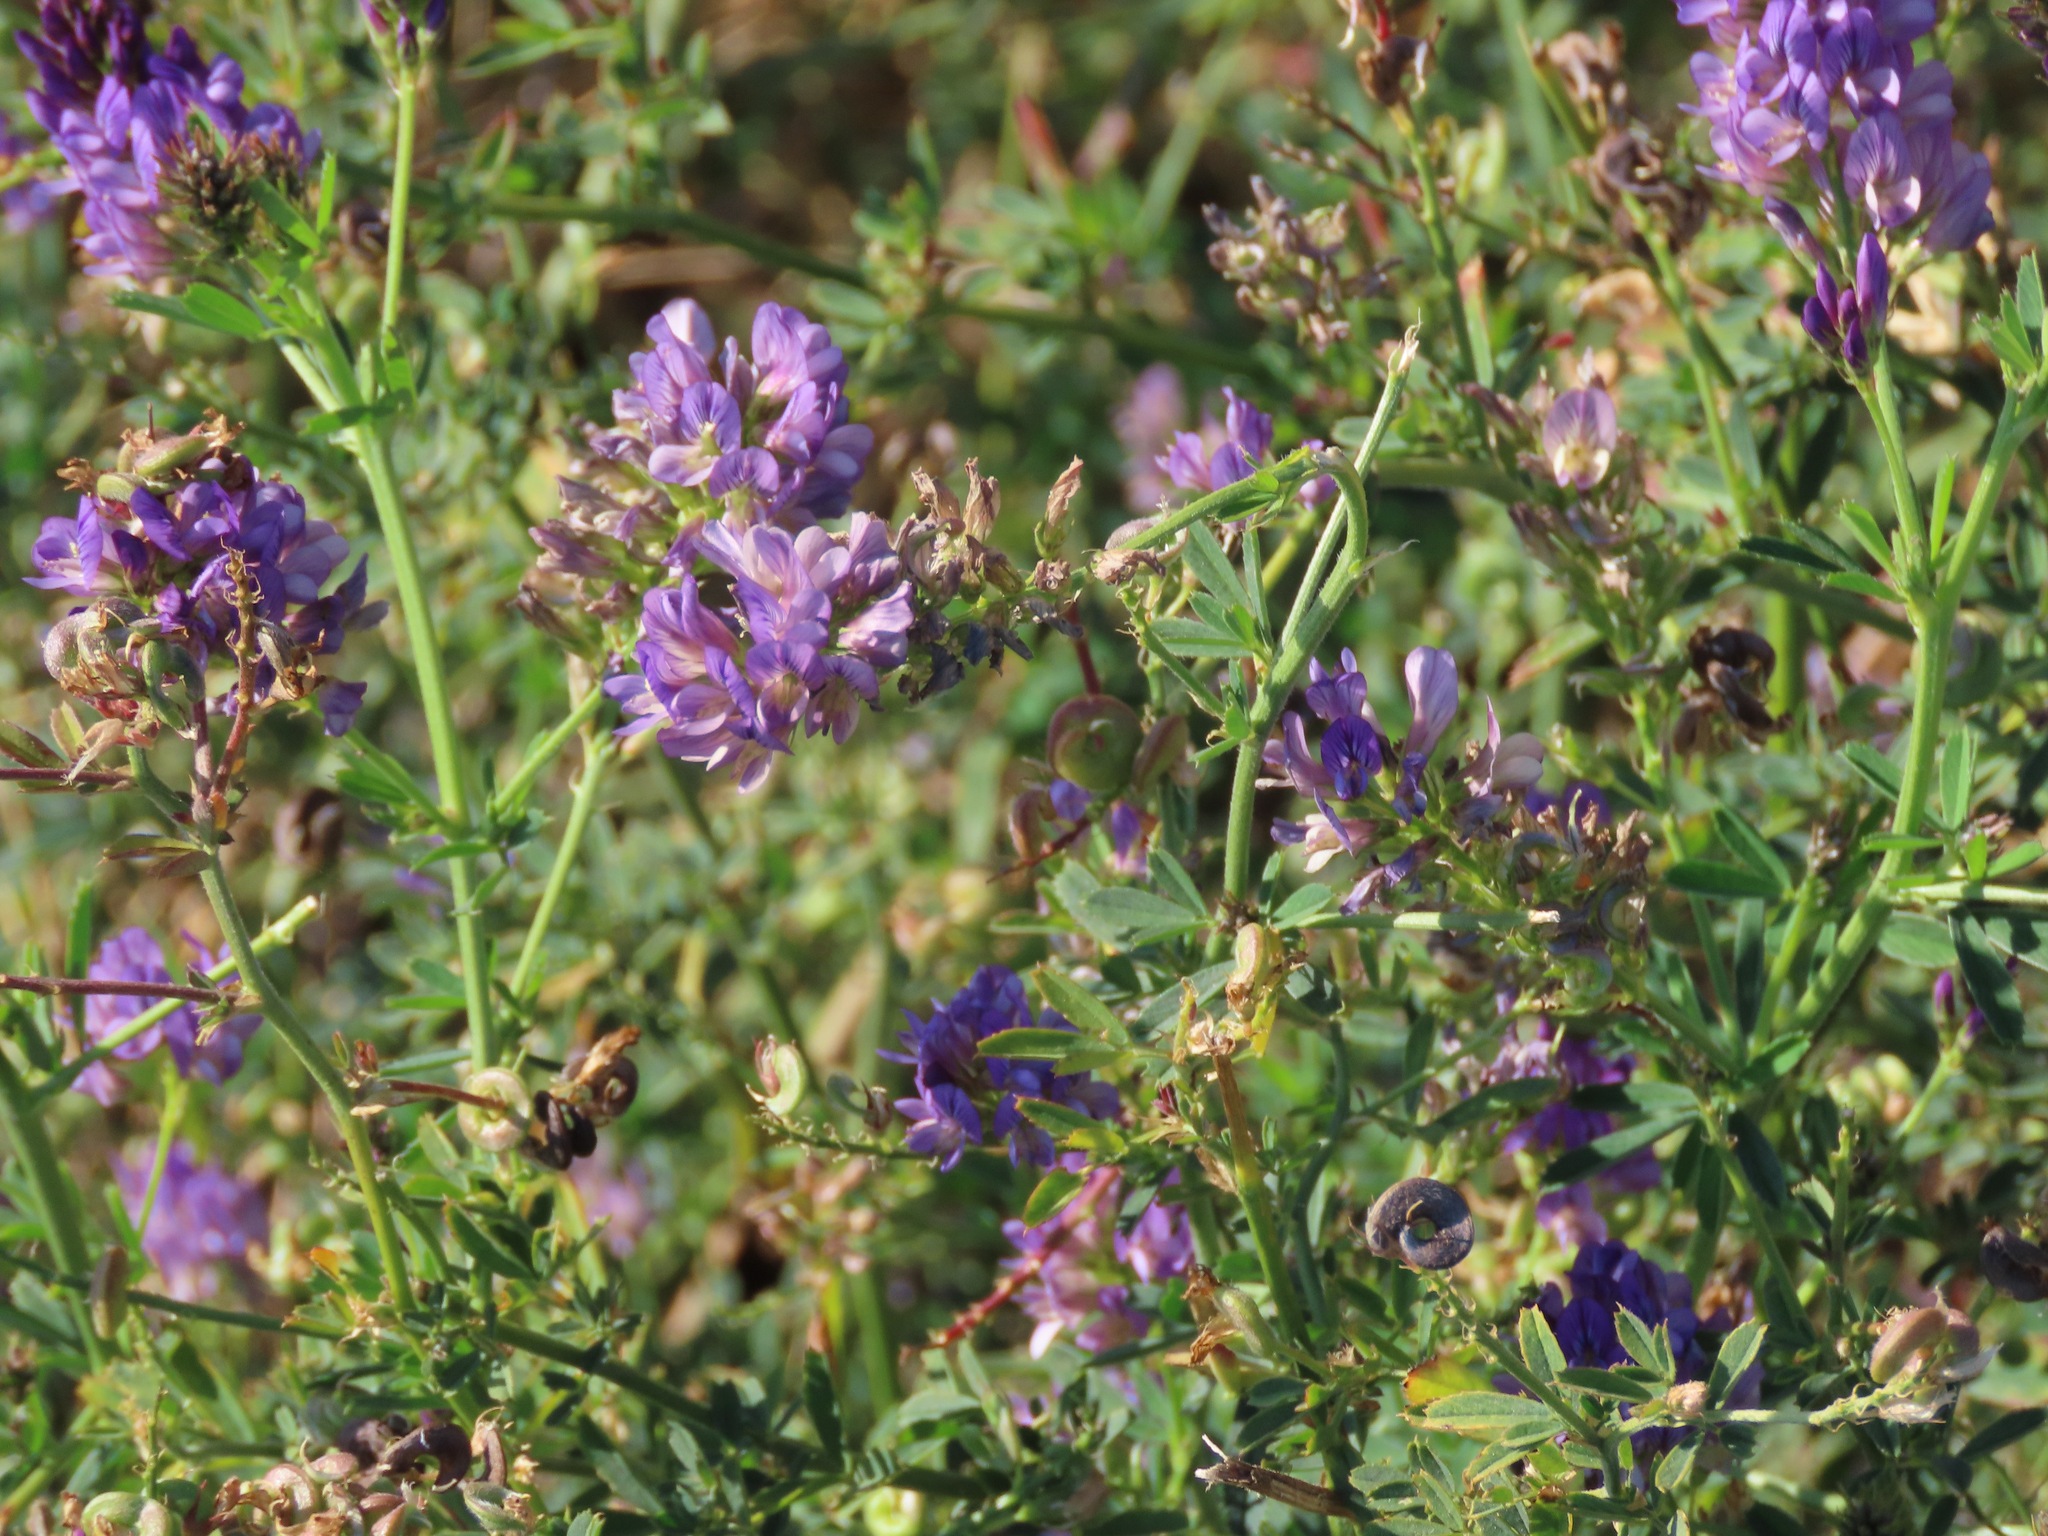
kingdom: Plantae
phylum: Tracheophyta
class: Magnoliopsida
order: Fabales
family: Fabaceae
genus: Medicago
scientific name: Medicago sativa
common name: Alfalfa
